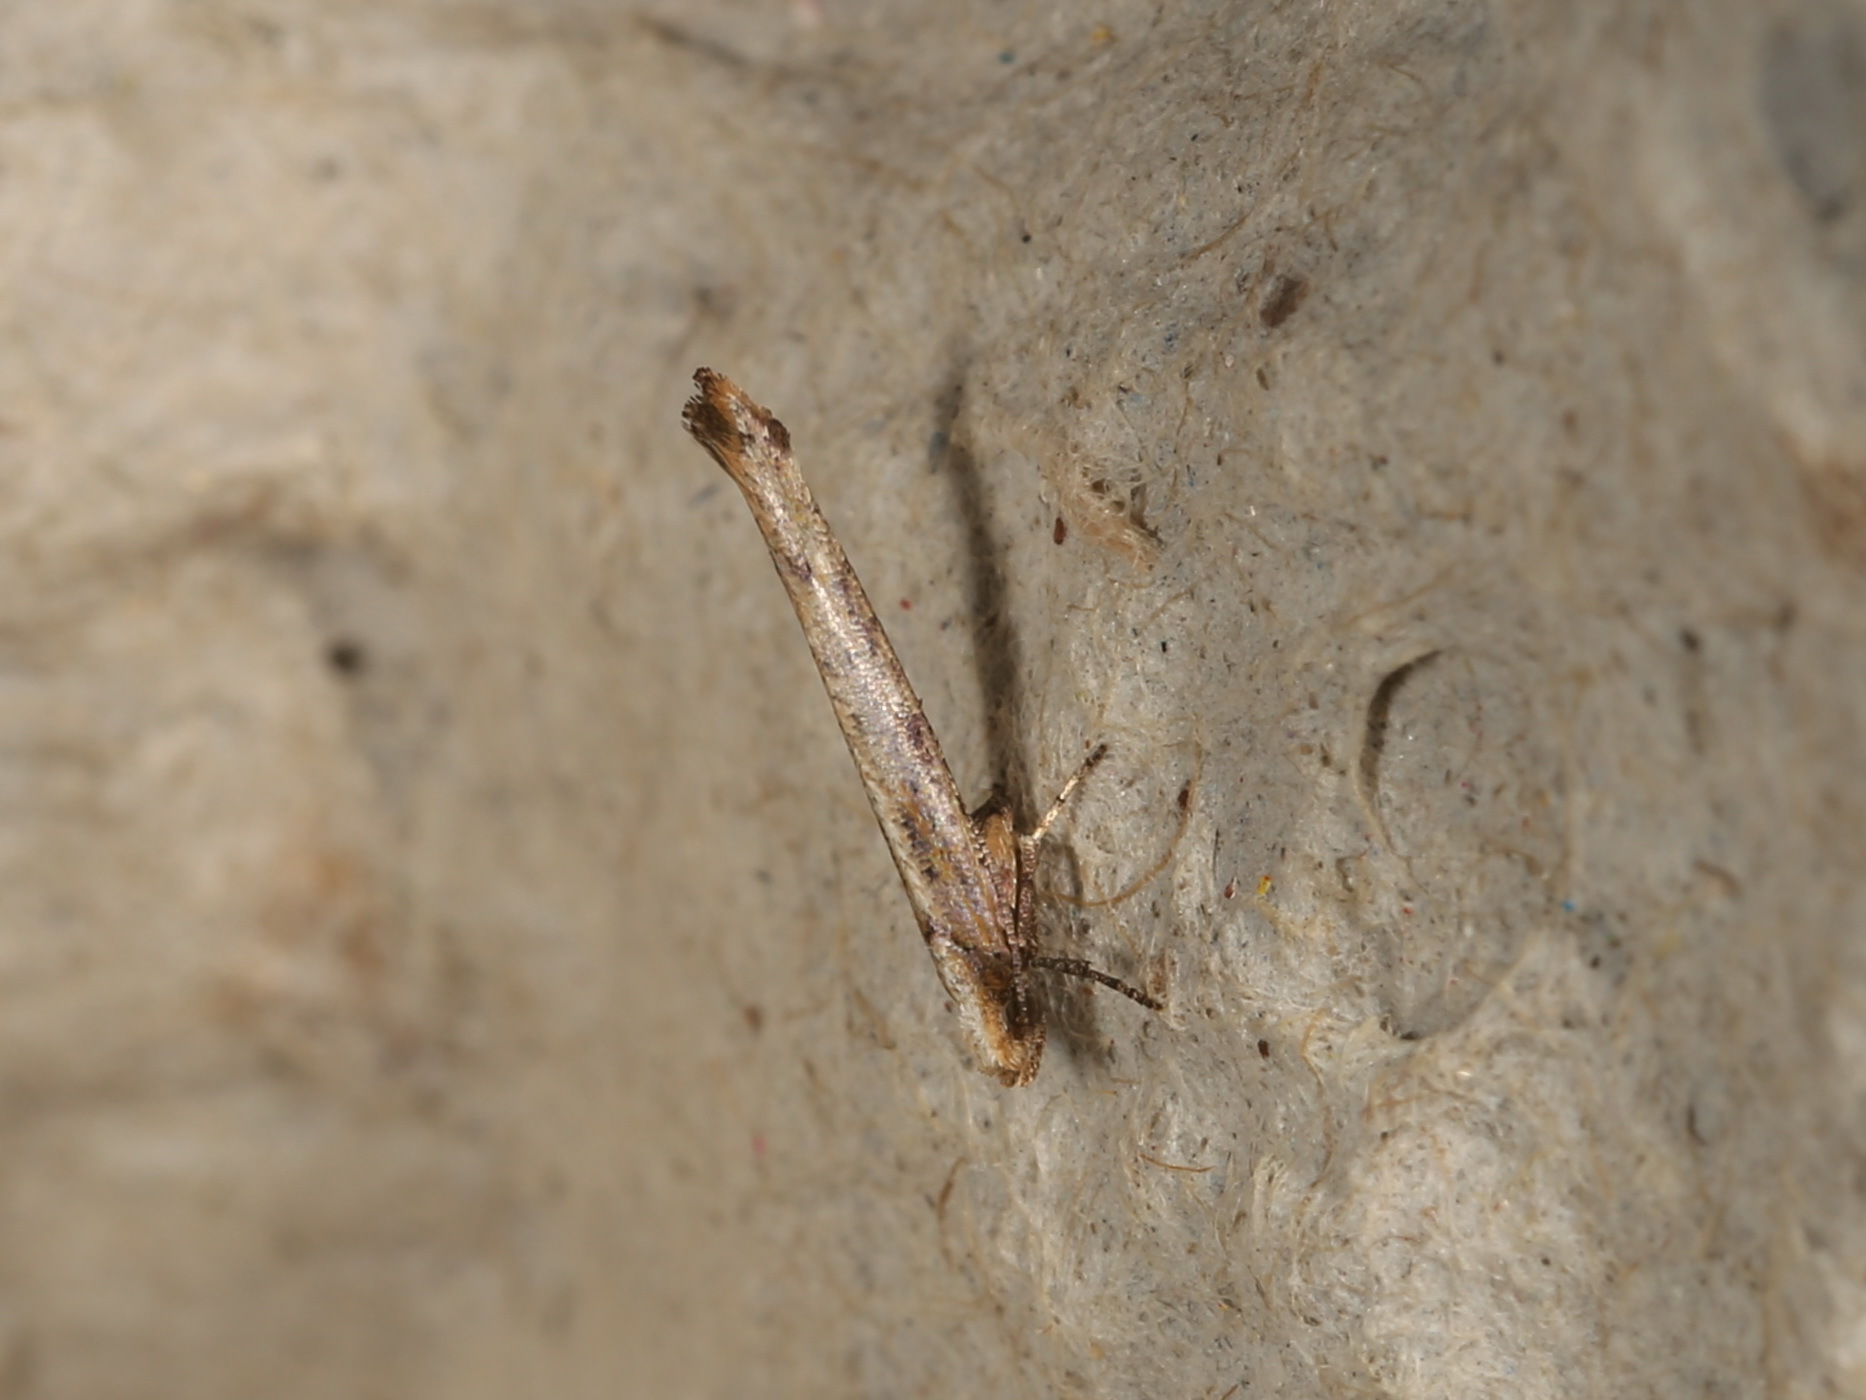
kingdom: Animalia
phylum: Arthropoda
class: Insecta
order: Lepidoptera
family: Yponomeutidae
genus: Zelleria
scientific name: Zelleria cynetica
